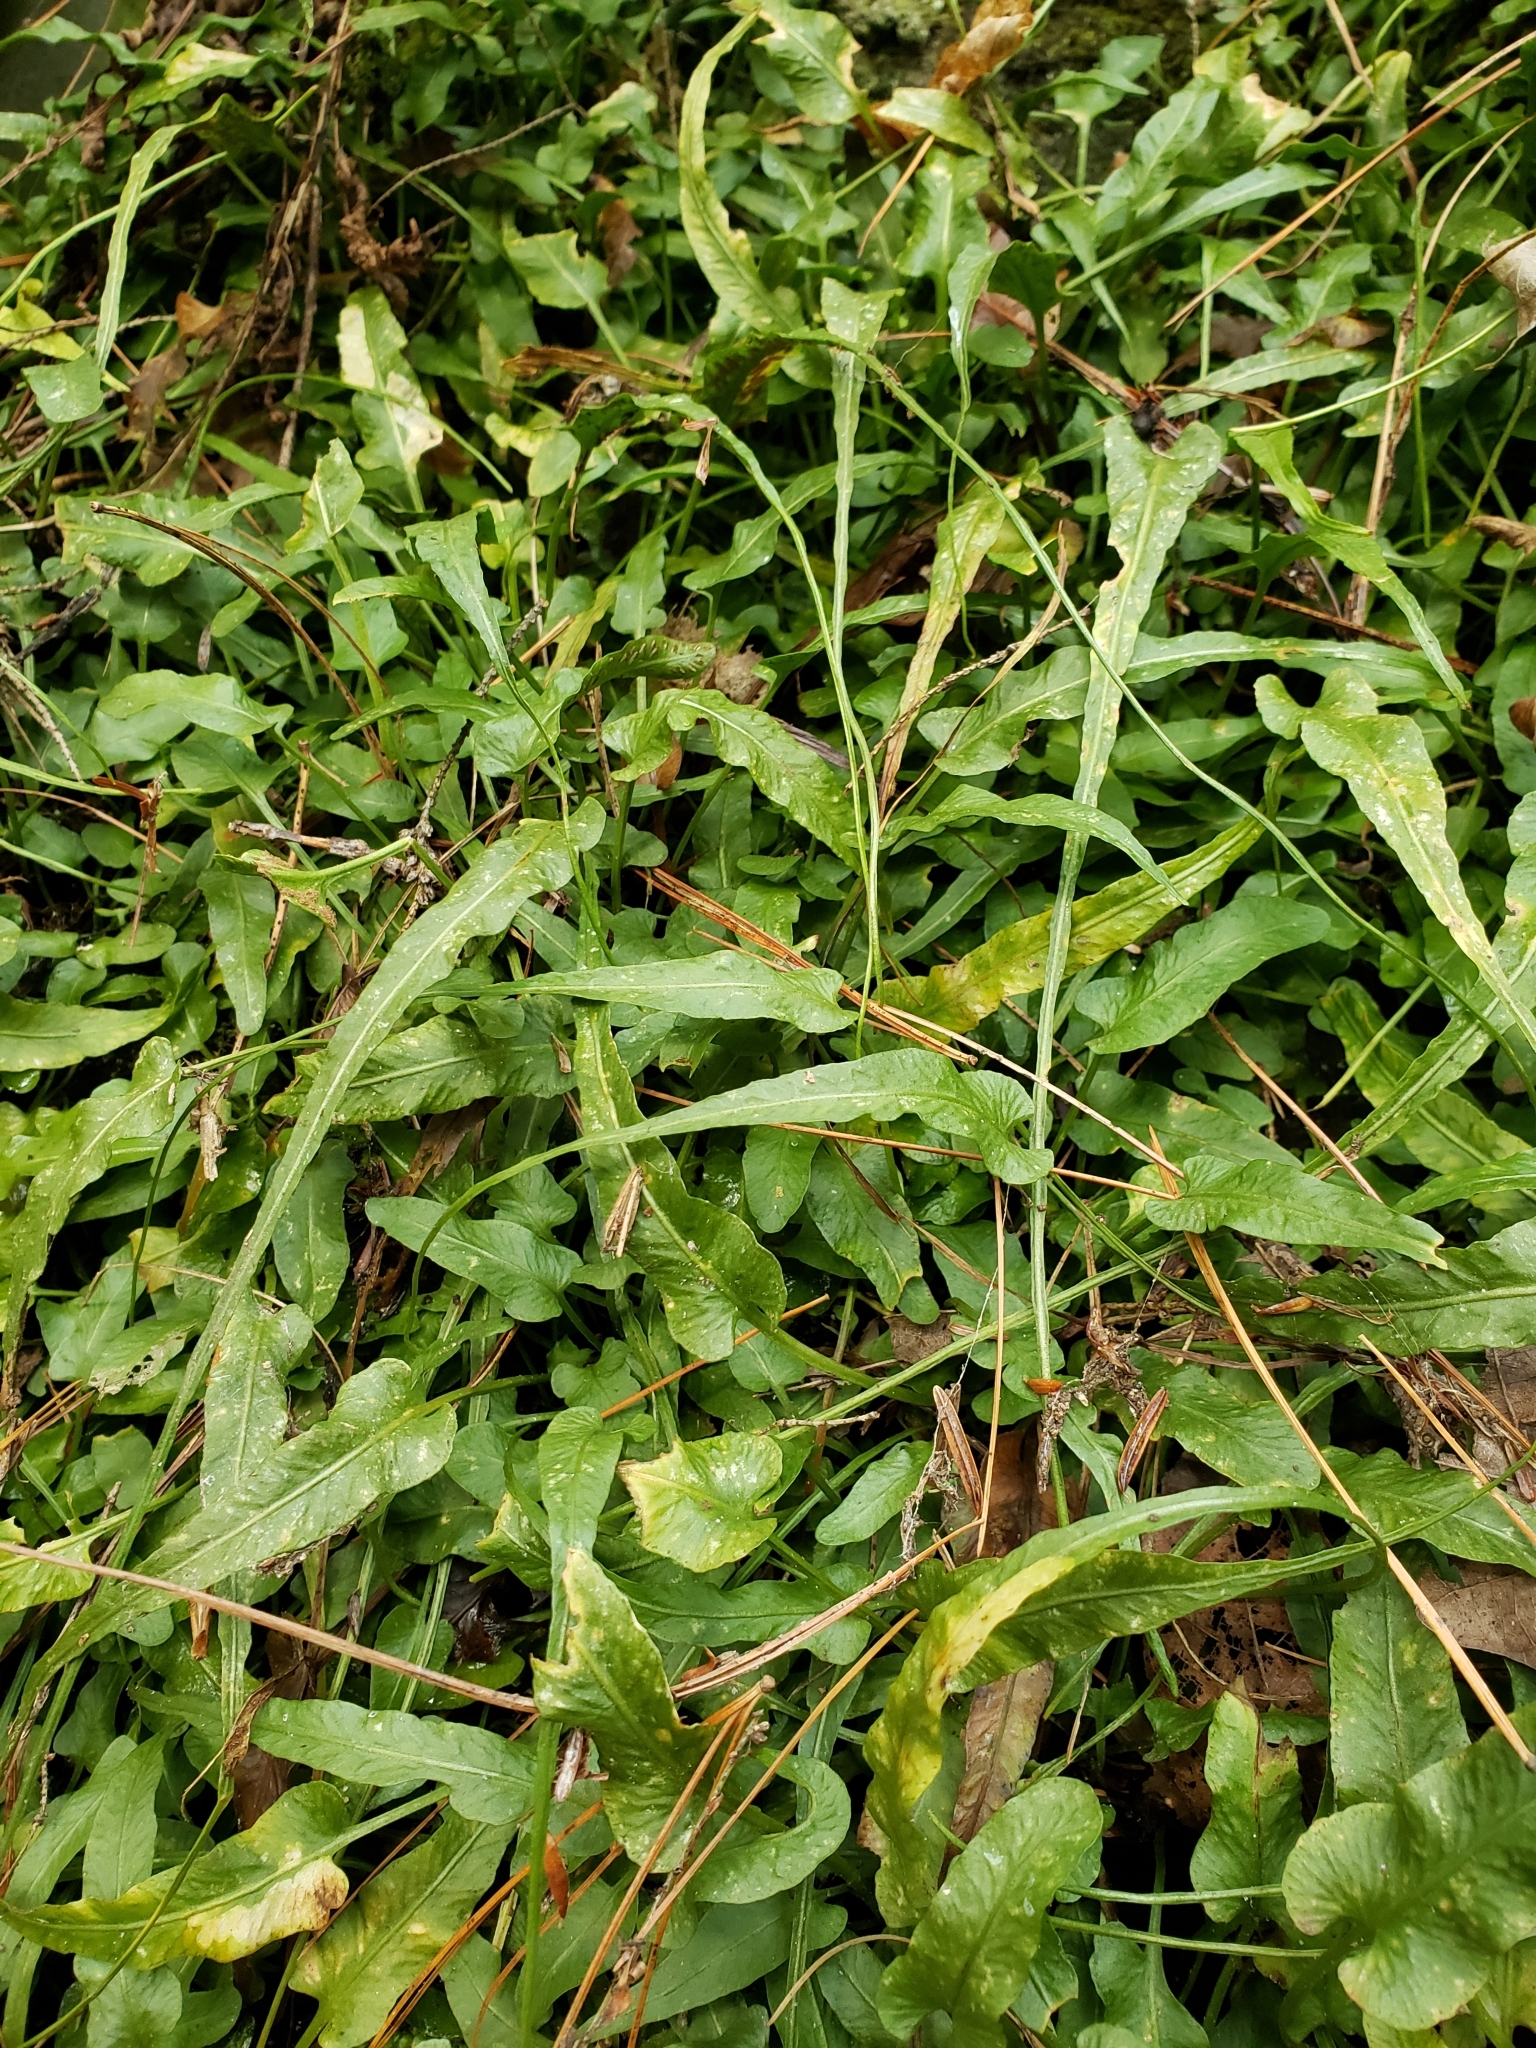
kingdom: Plantae
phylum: Tracheophyta
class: Polypodiopsida
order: Polypodiales
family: Aspleniaceae
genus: Asplenium
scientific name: Asplenium rhizophyllum
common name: Walking fern
